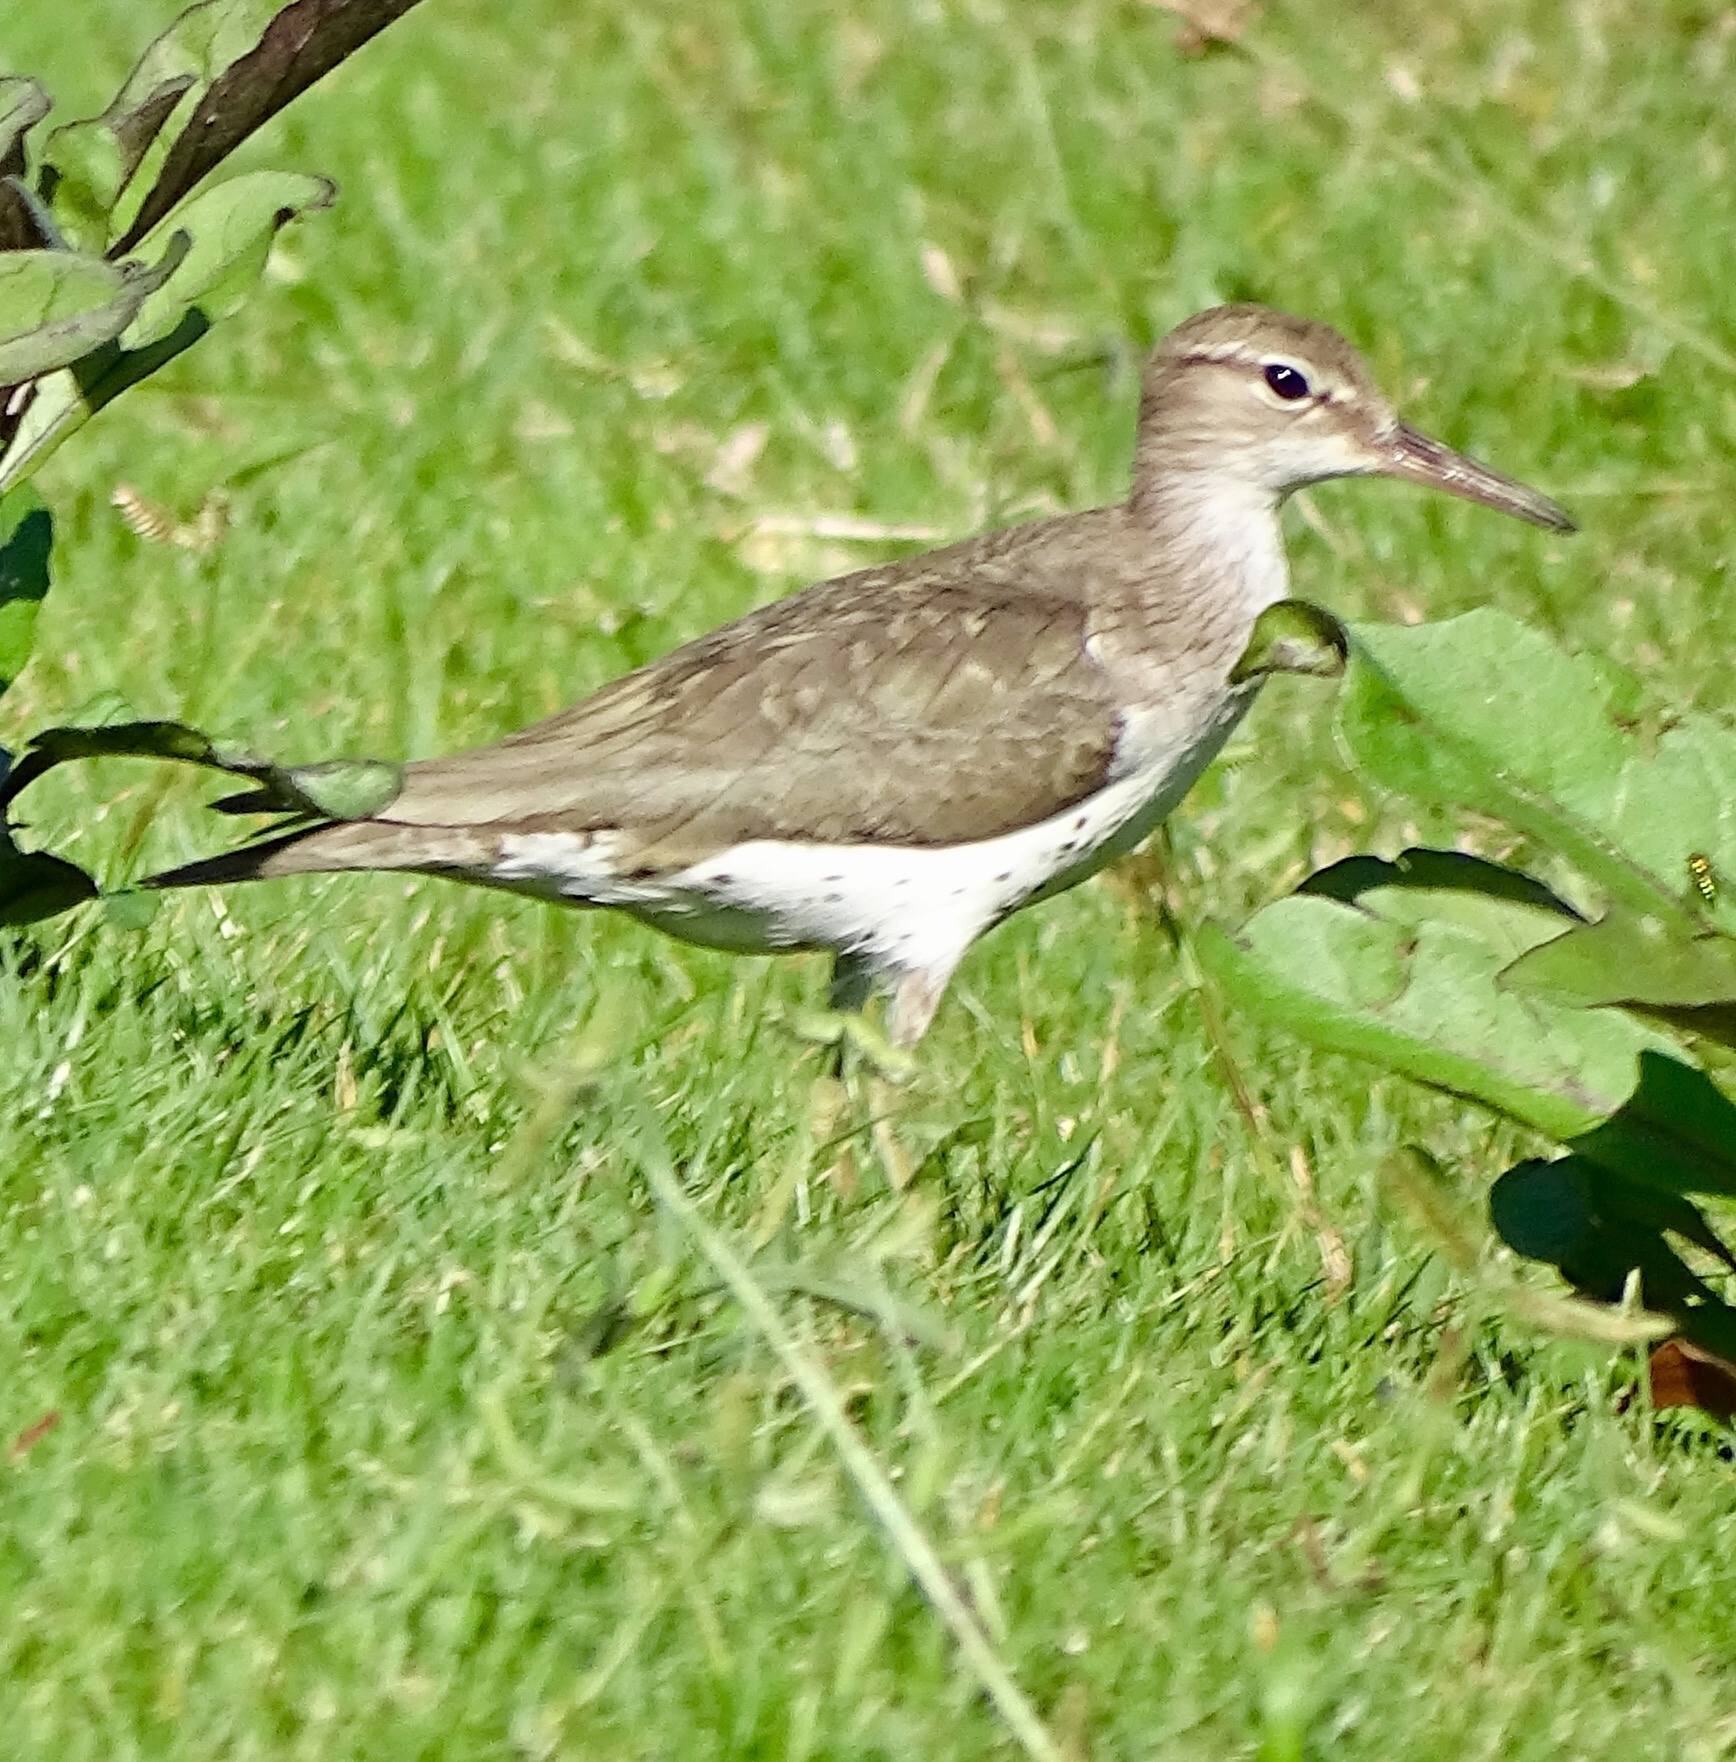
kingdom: Animalia
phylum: Chordata
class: Aves
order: Charadriiformes
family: Scolopacidae
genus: Actitis
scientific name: Actitis macularius
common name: Spotted sandpiper
